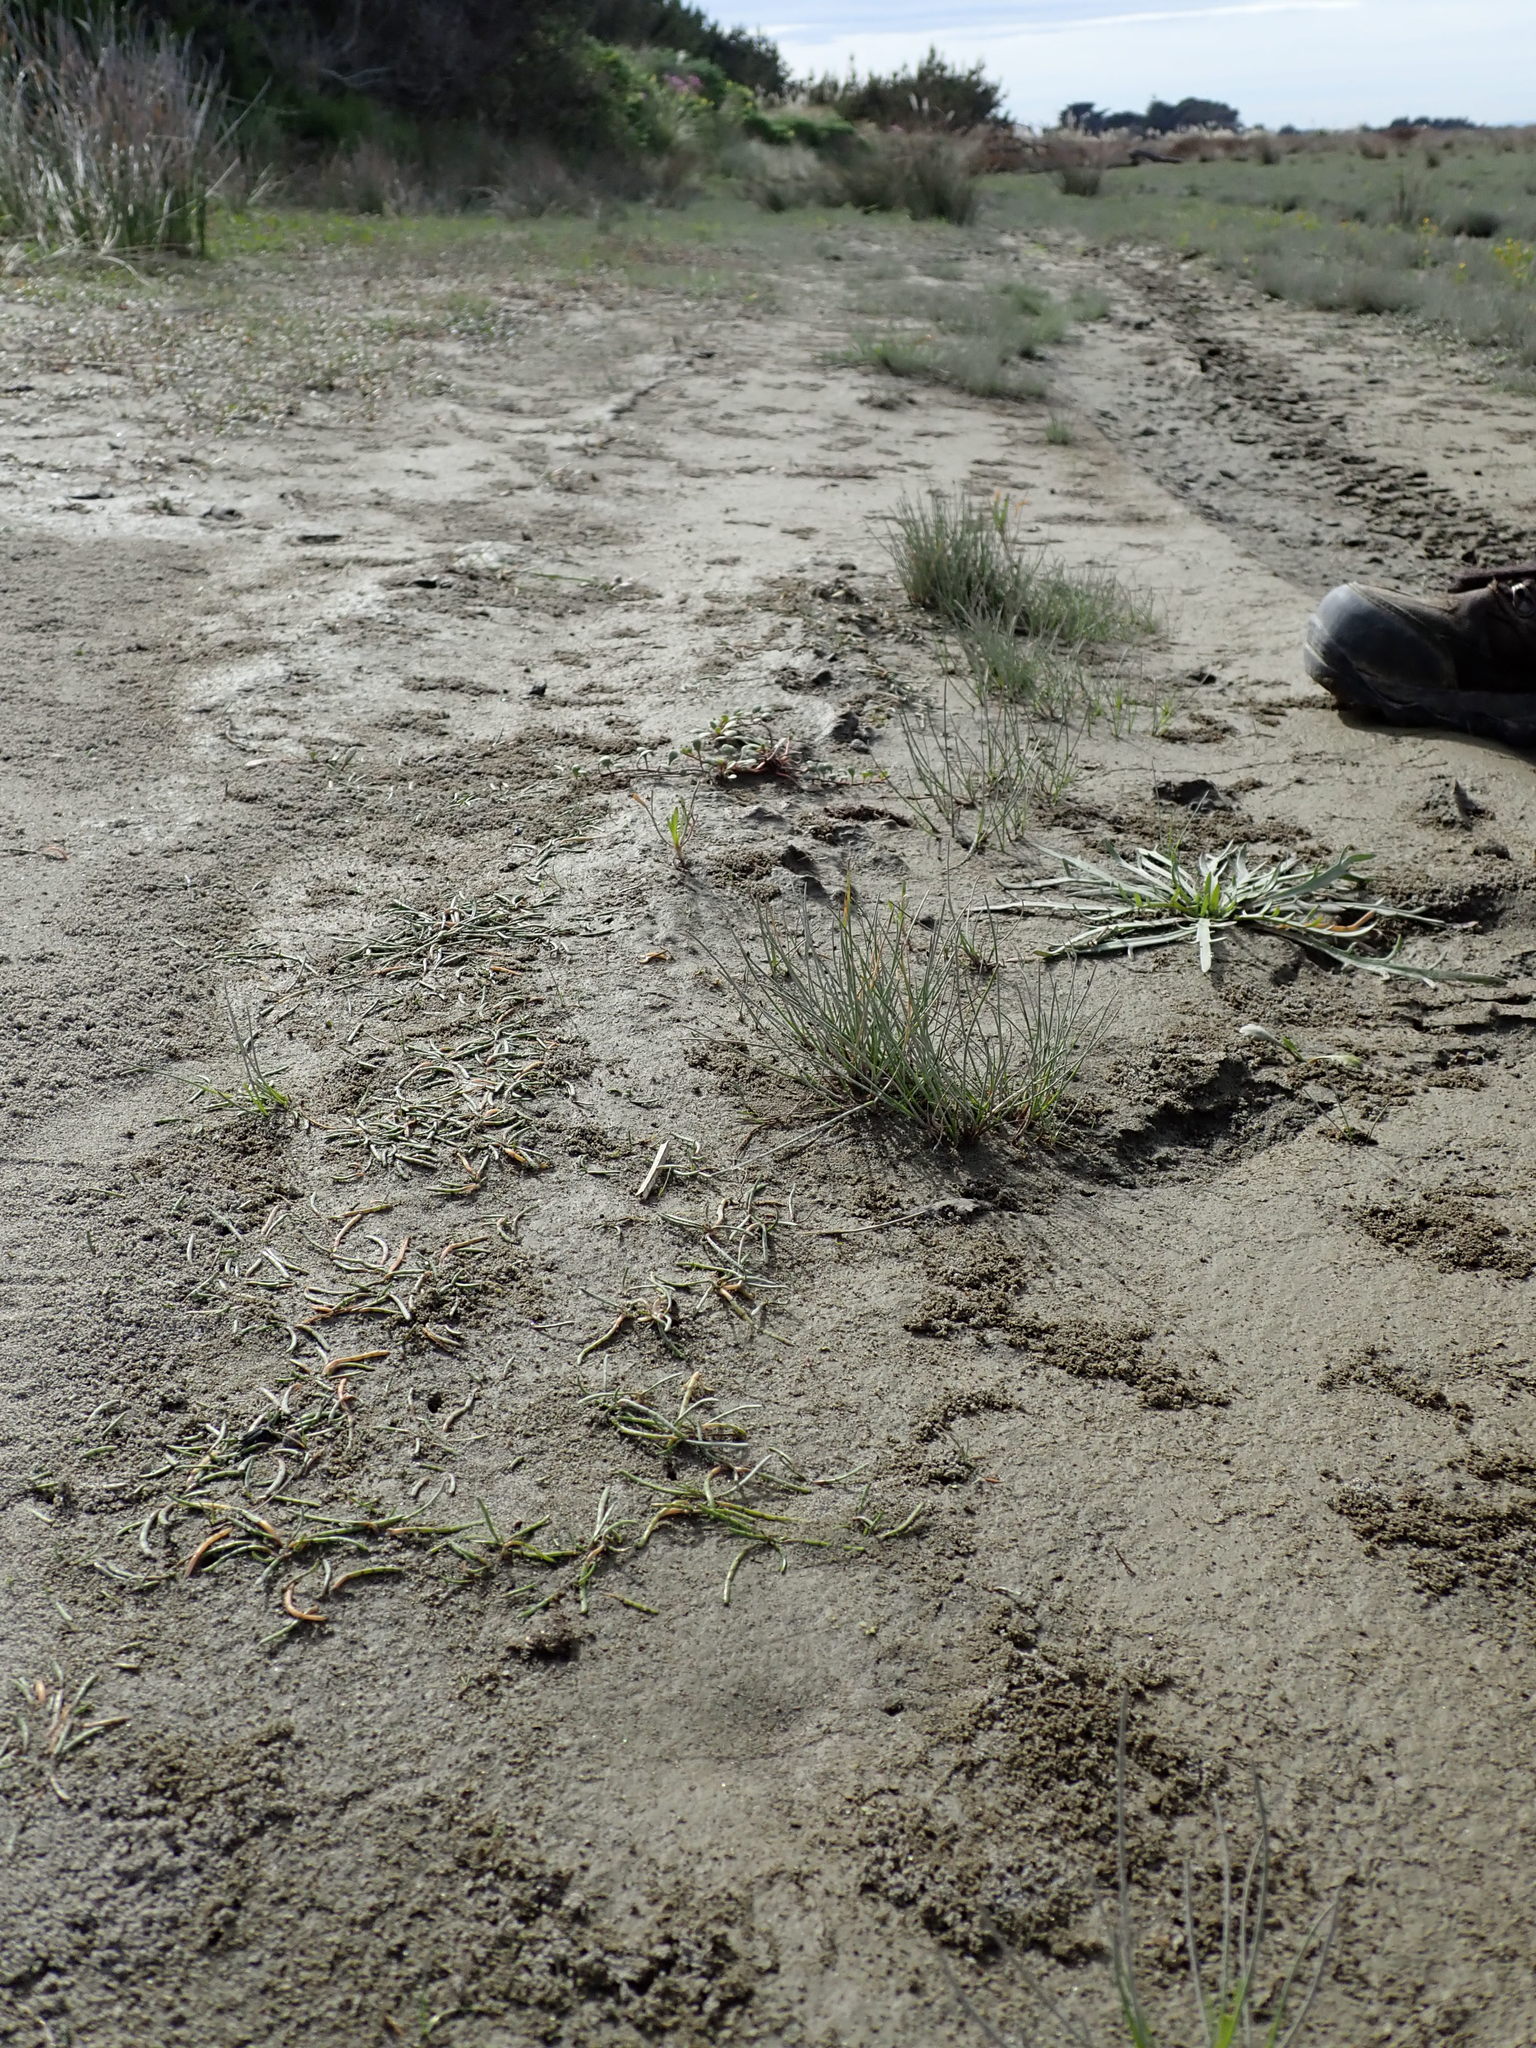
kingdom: Plantae
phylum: Tracheophyta
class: Magnoliopsida
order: Apiales
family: Apiaceae
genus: Lilaeopsis
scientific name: Lilaeopsis novae-zelandiae
